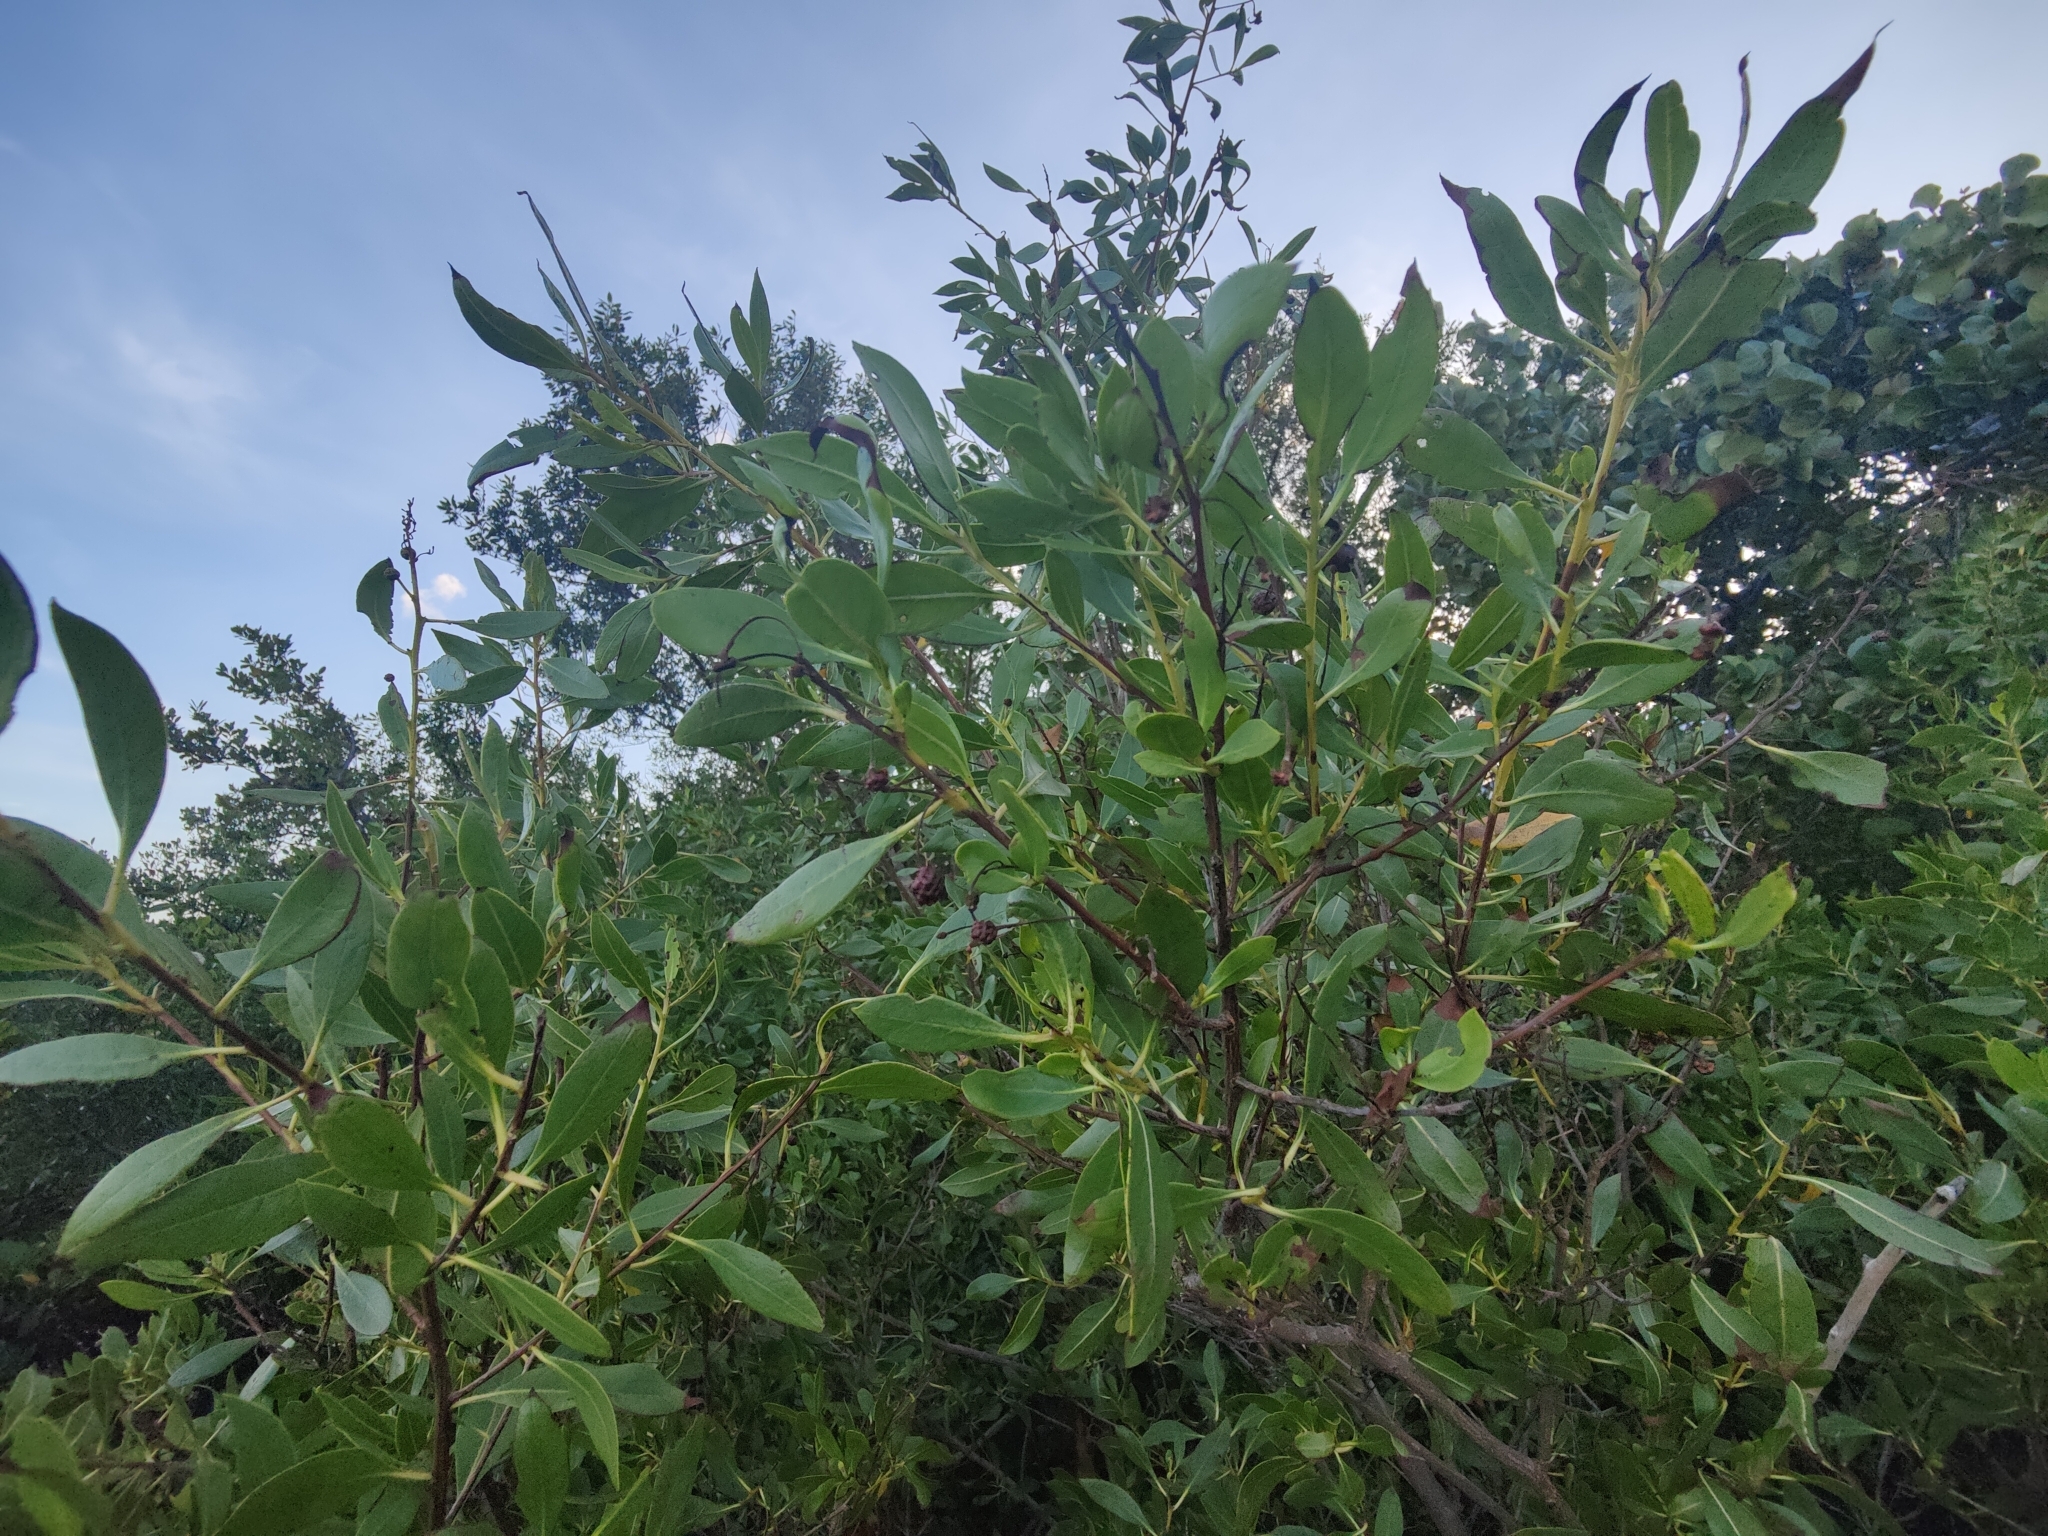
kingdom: Plantae
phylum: Tracheophyta
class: Magnoliopsida
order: Myrtales
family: Combretaceae
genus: Conocarpus
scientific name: Conocarpus erectus
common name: Button mangrove
